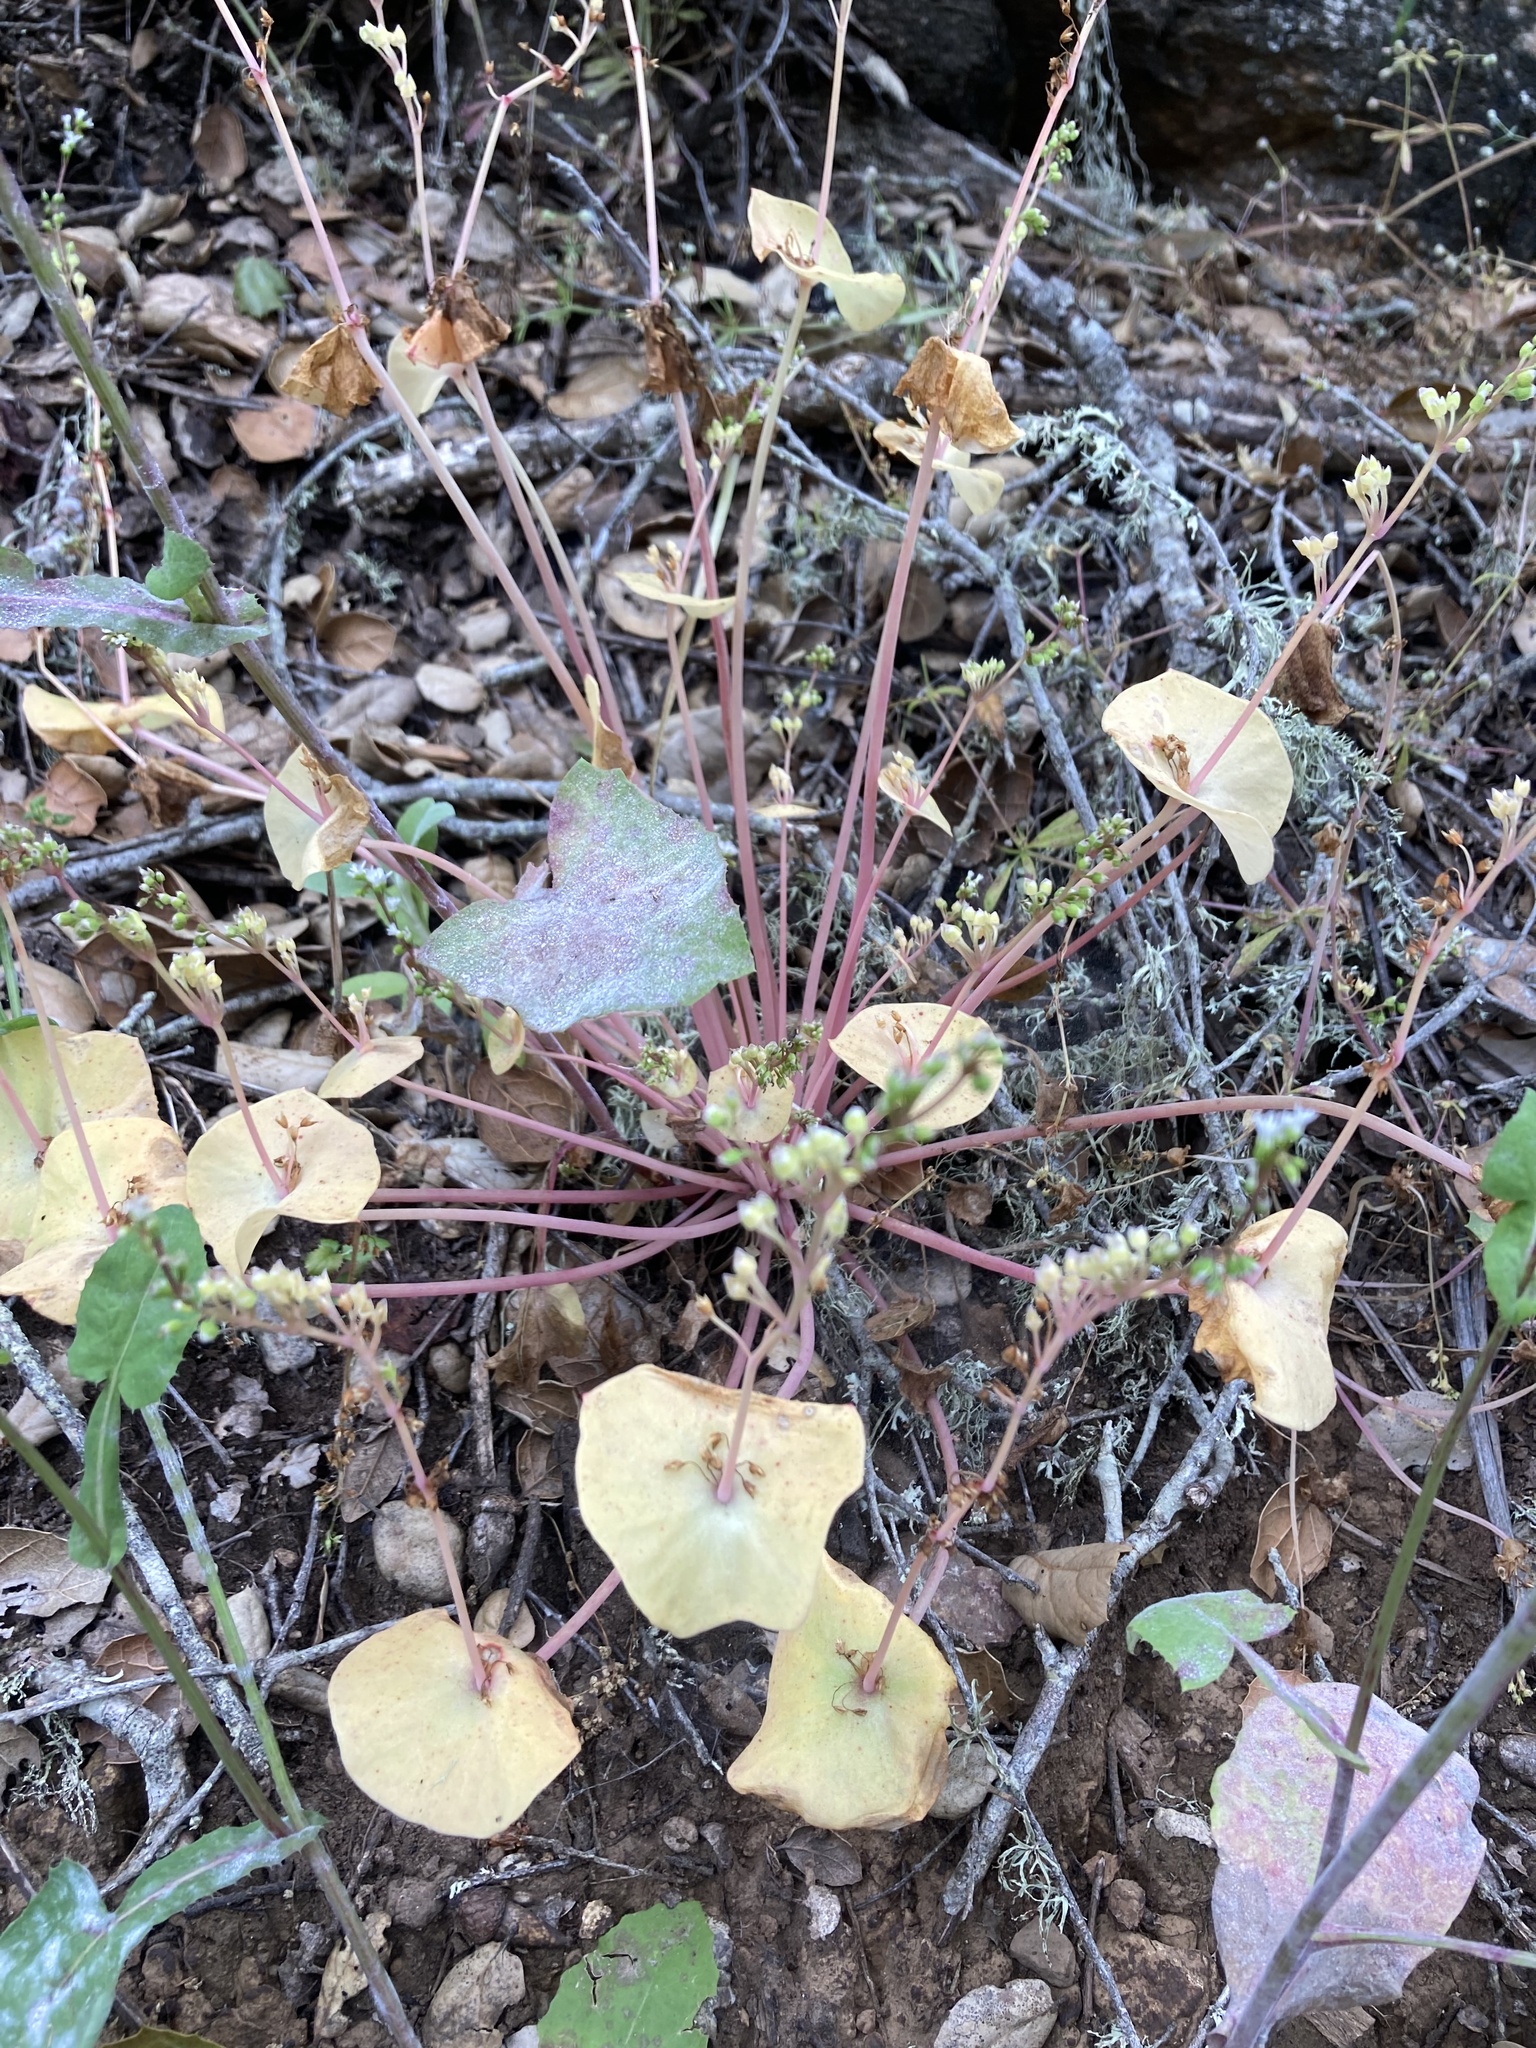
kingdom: Plantae
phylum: Tracheophyta
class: Magnoliopsida
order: Caryophyllales
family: Montiaceae
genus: Claytonia
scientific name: Claytonia perfoliata
